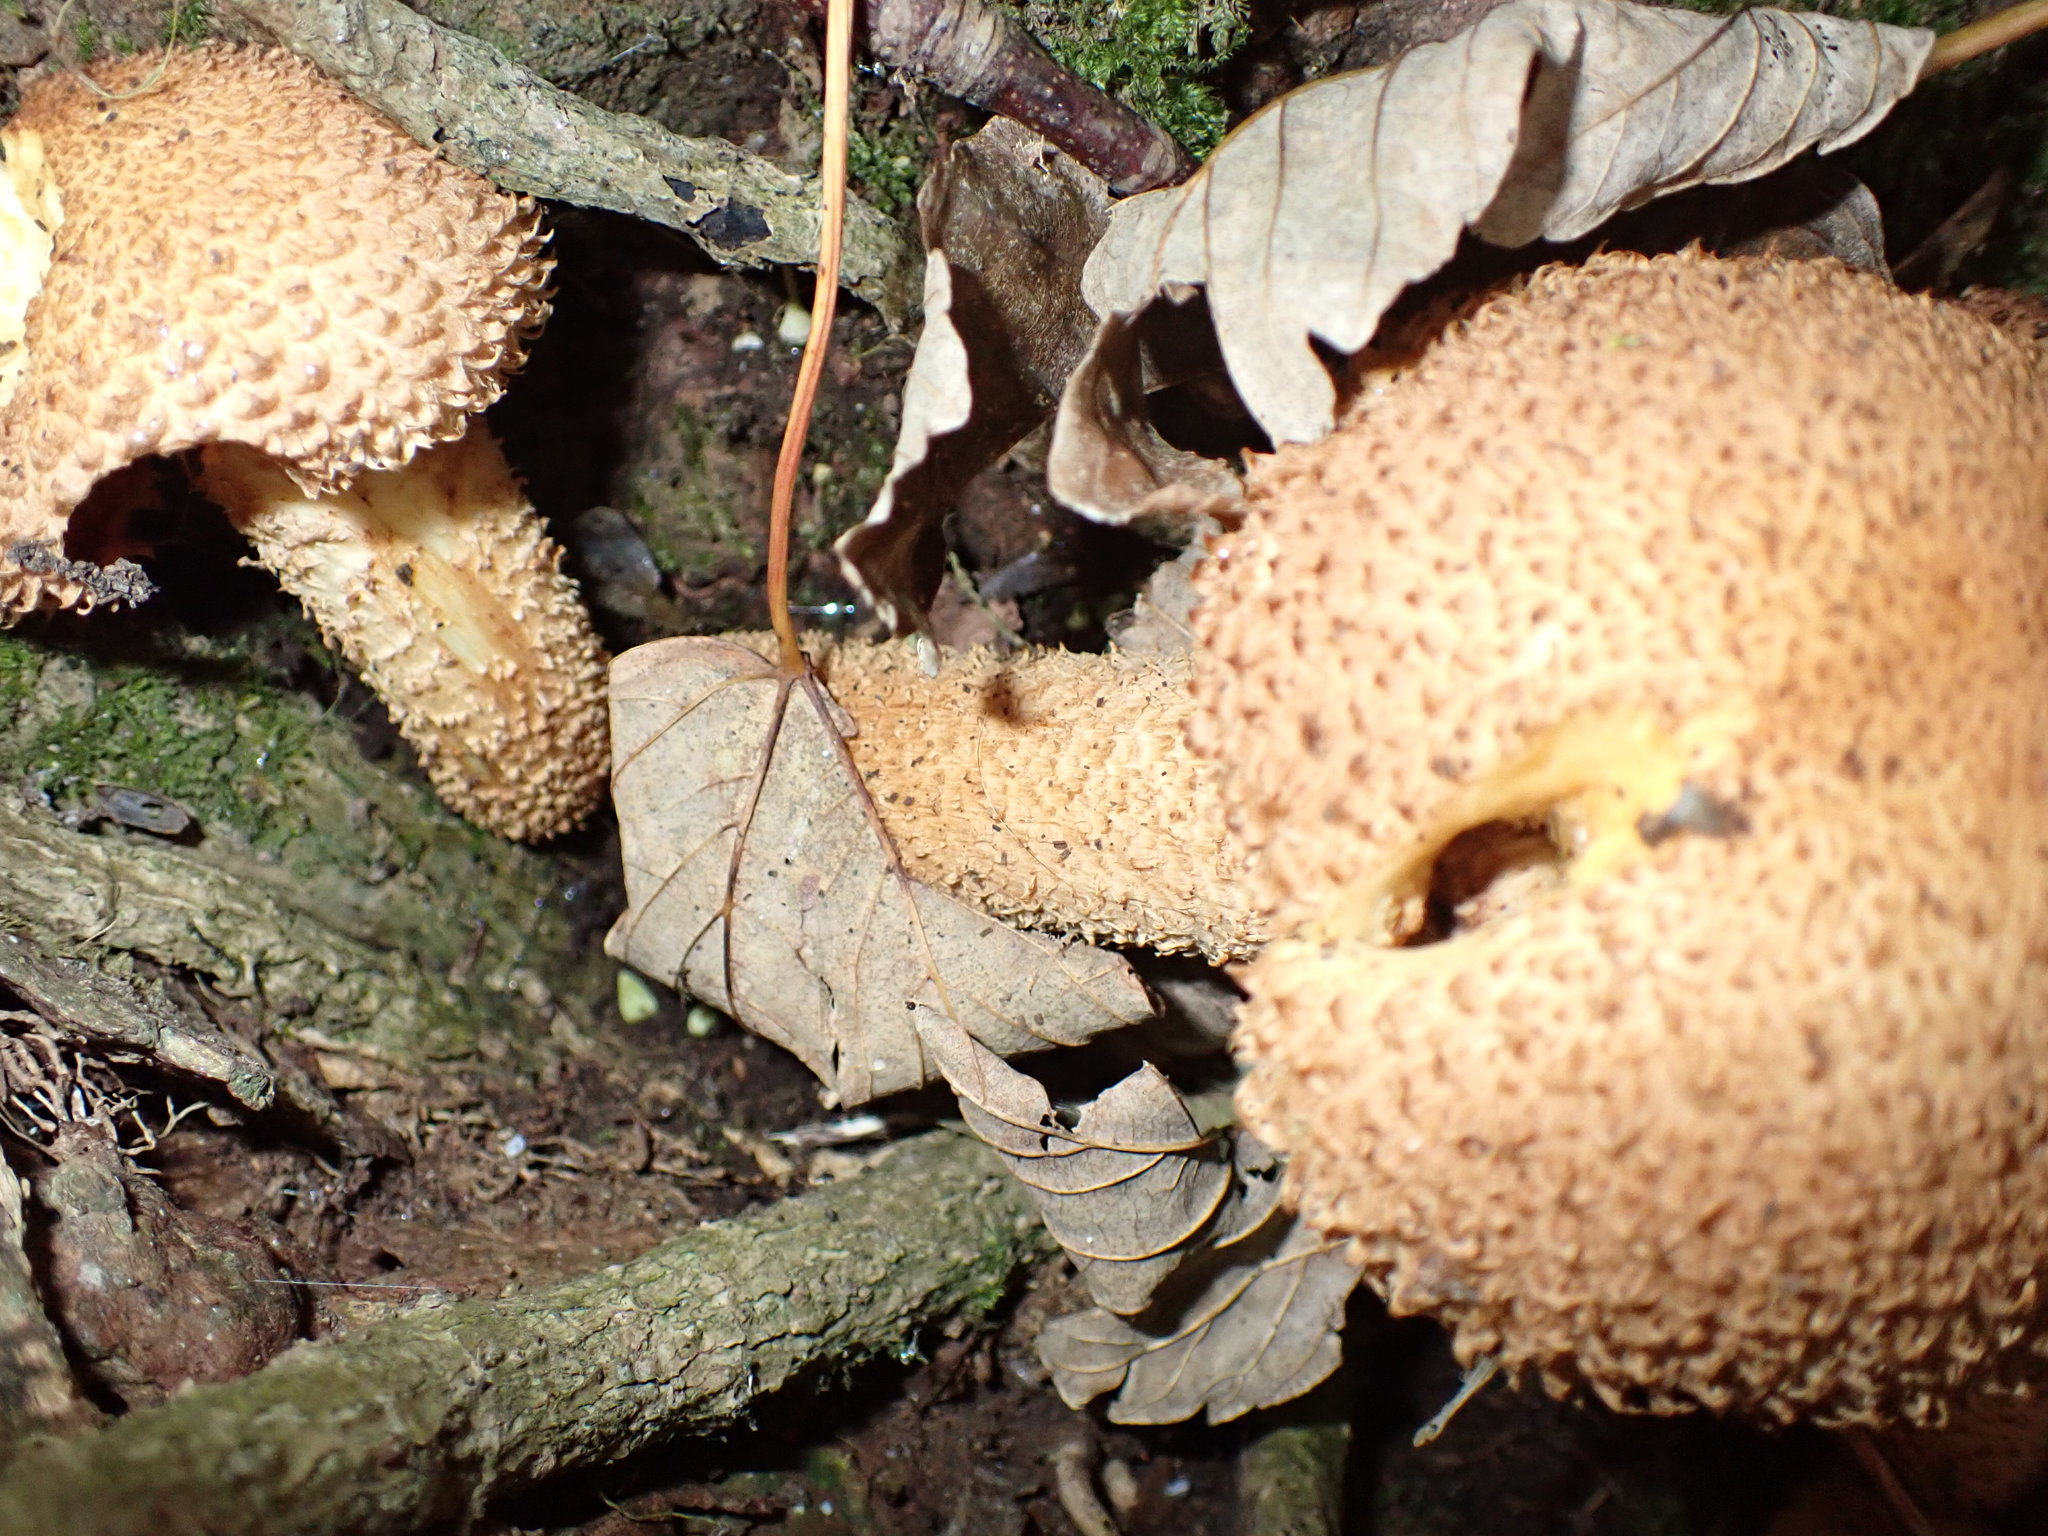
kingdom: Fungi
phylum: Basidiomycota
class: Agaricomycetes
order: Agaricales
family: Strophariaceae
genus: Pholiota
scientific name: Pholiota squarrosa
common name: Shaggy pholiota
